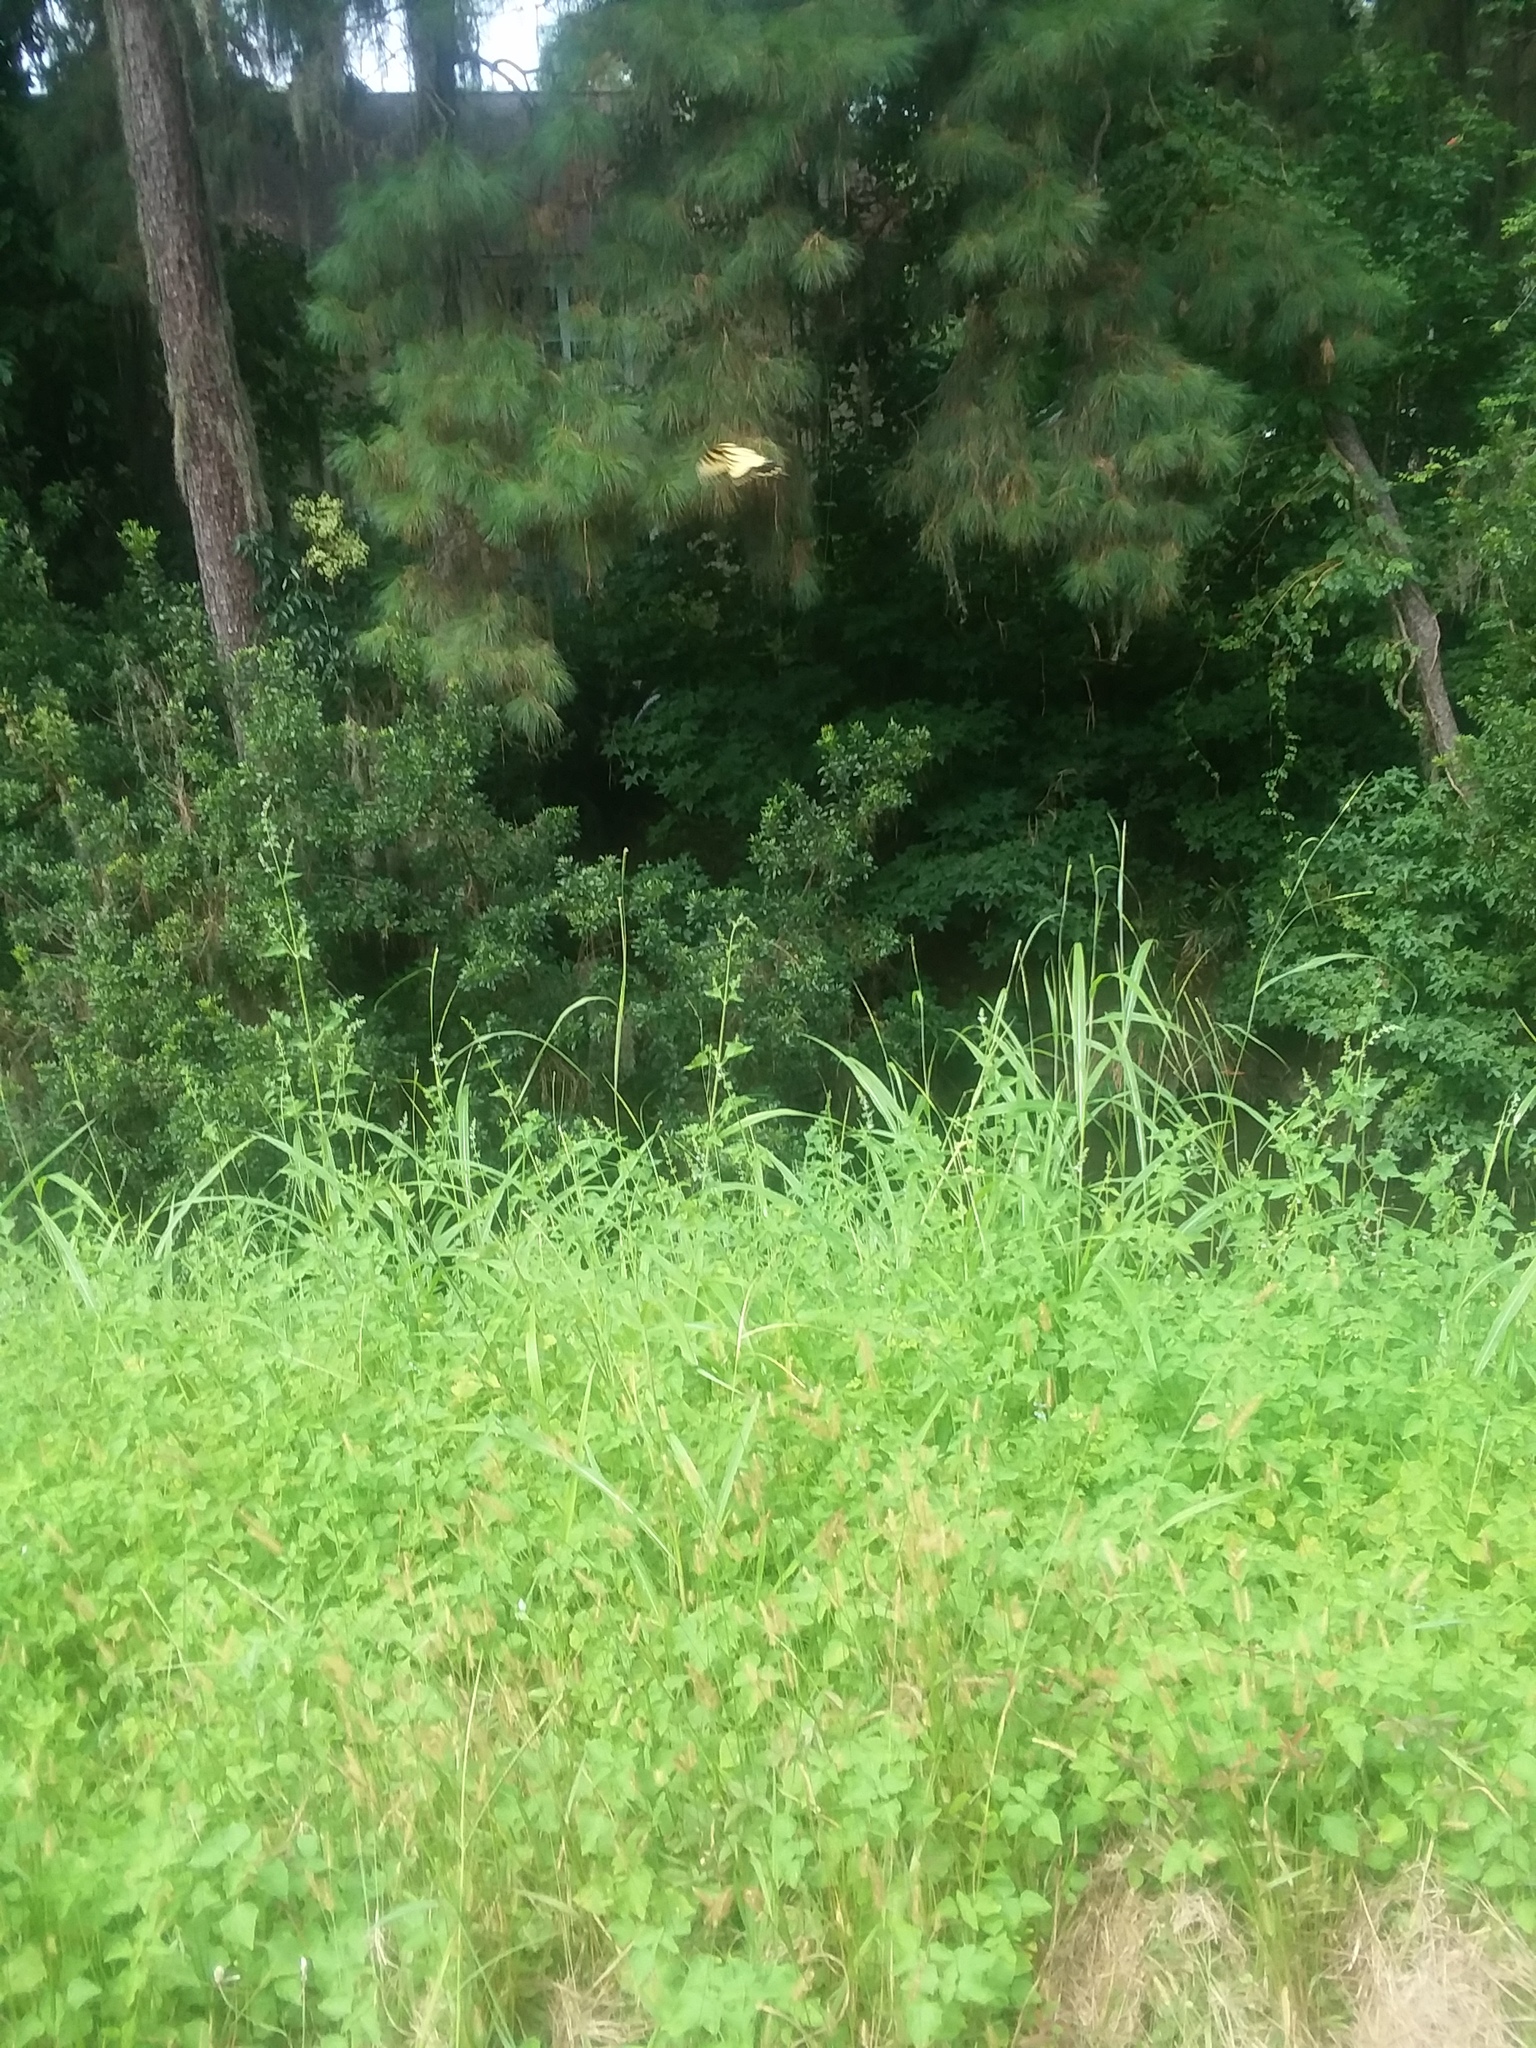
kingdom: Animalia
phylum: Arthropoda
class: Insecta
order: Lepidoptera
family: Papilionidae
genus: Papilio
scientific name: Papilio glaucus
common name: Tiger swallowtail
